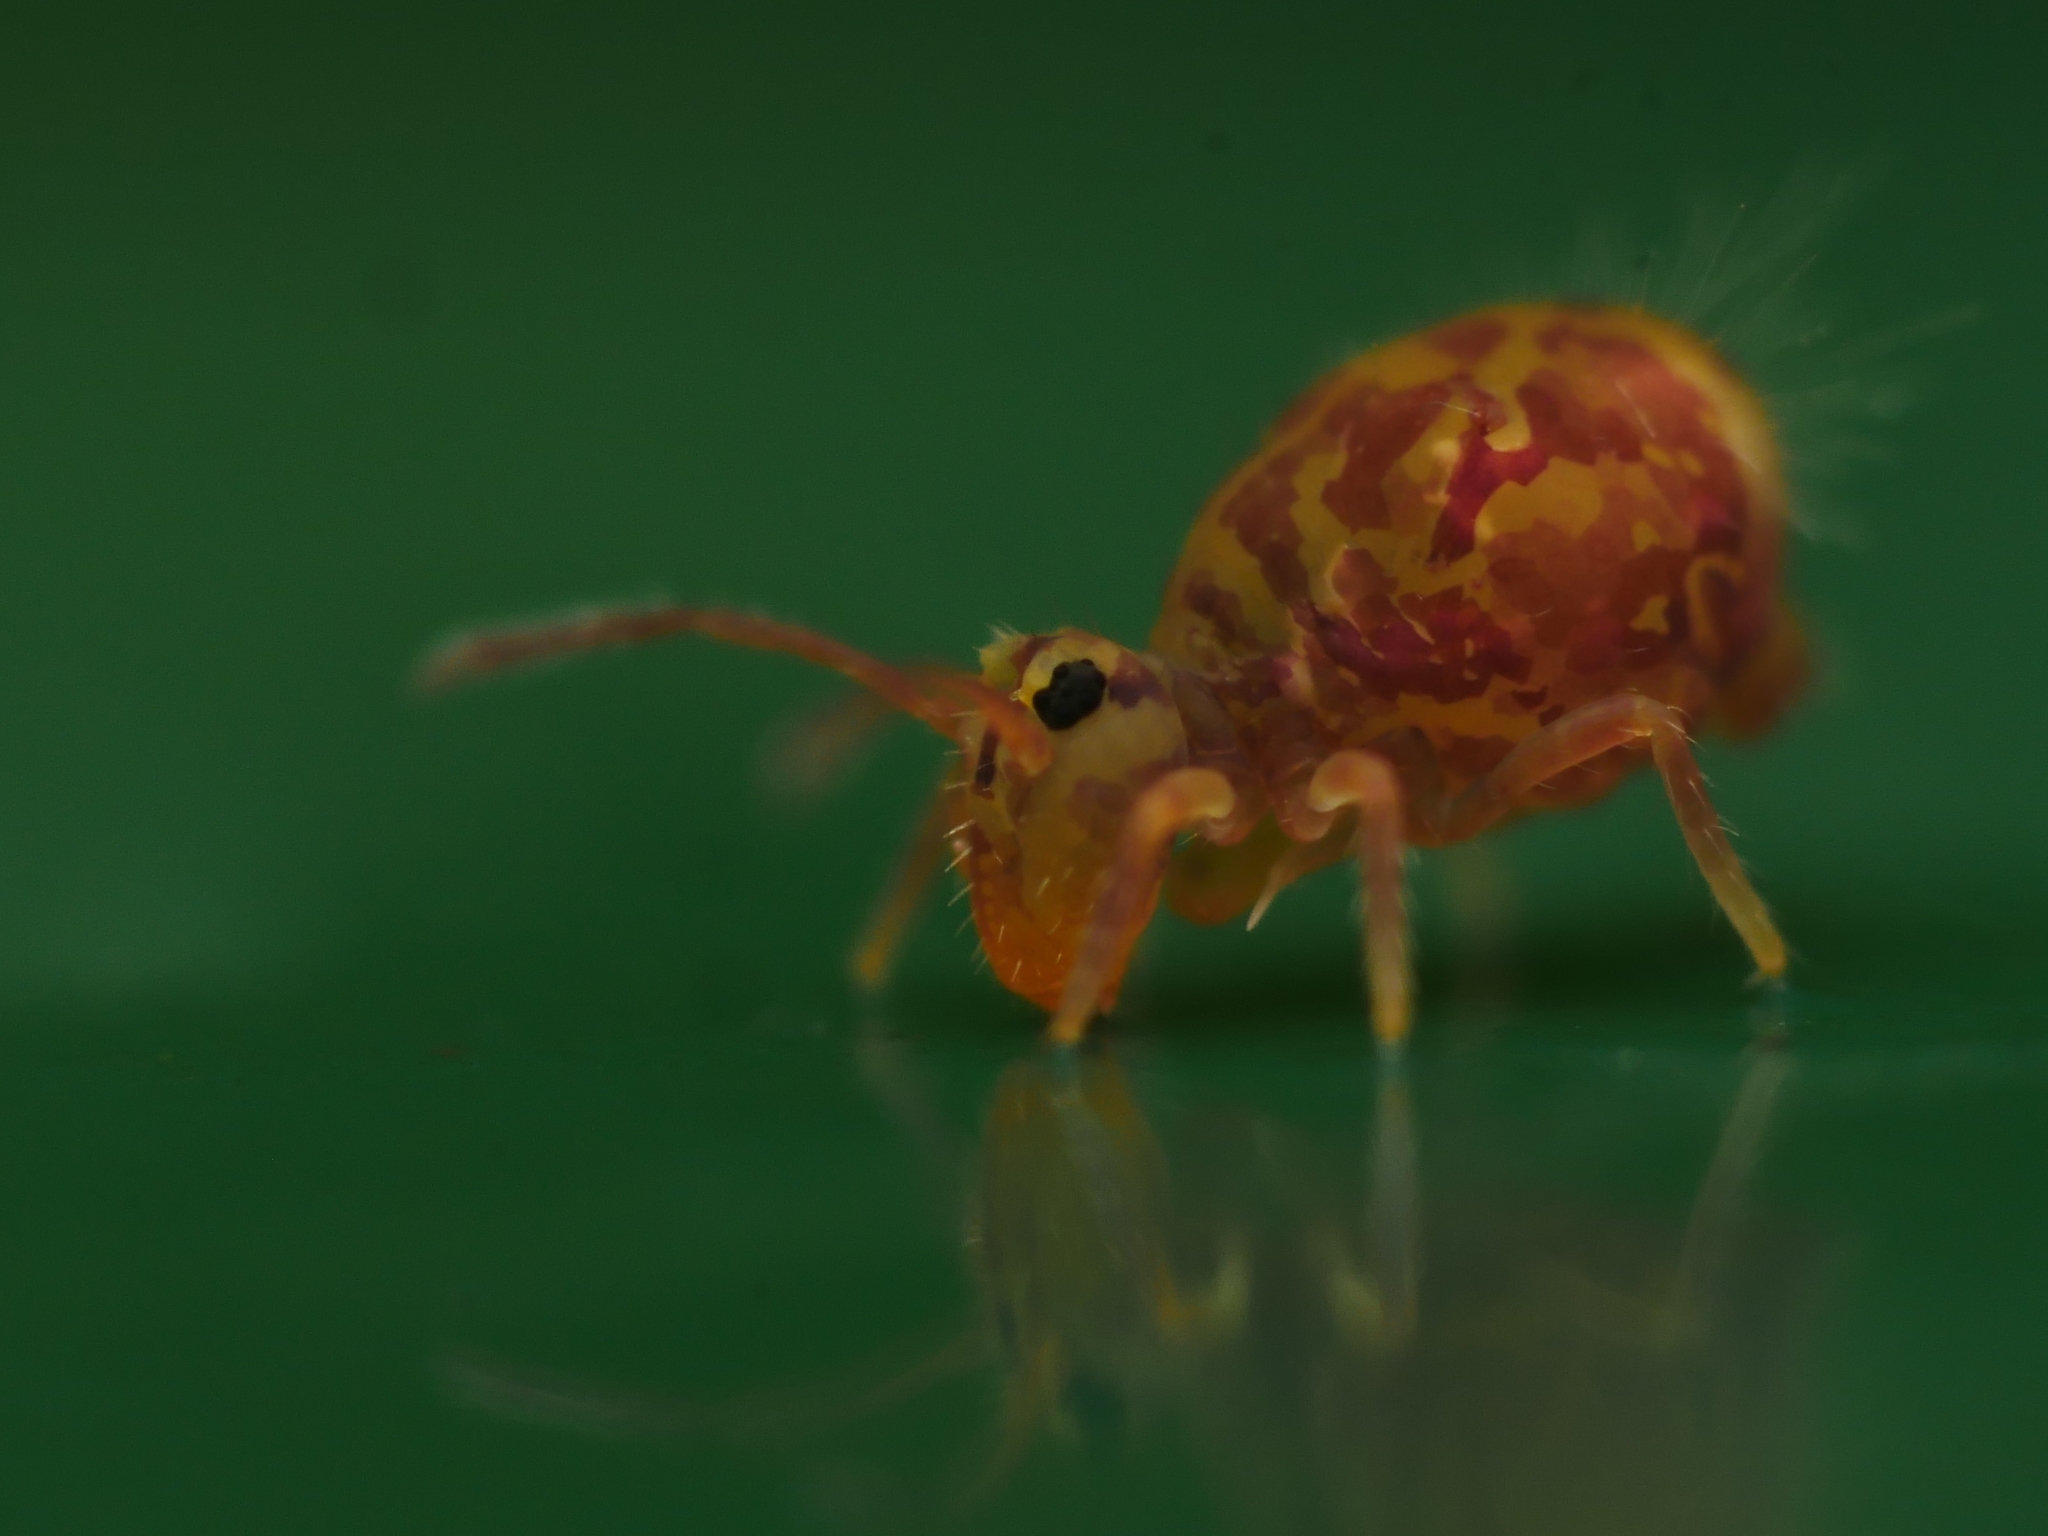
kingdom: Animalia
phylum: Arthropoda
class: Collembola
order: Symphypleona
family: Dicyrtomidae
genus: Dicyrtomina
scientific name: Dicyrtomina ornata
